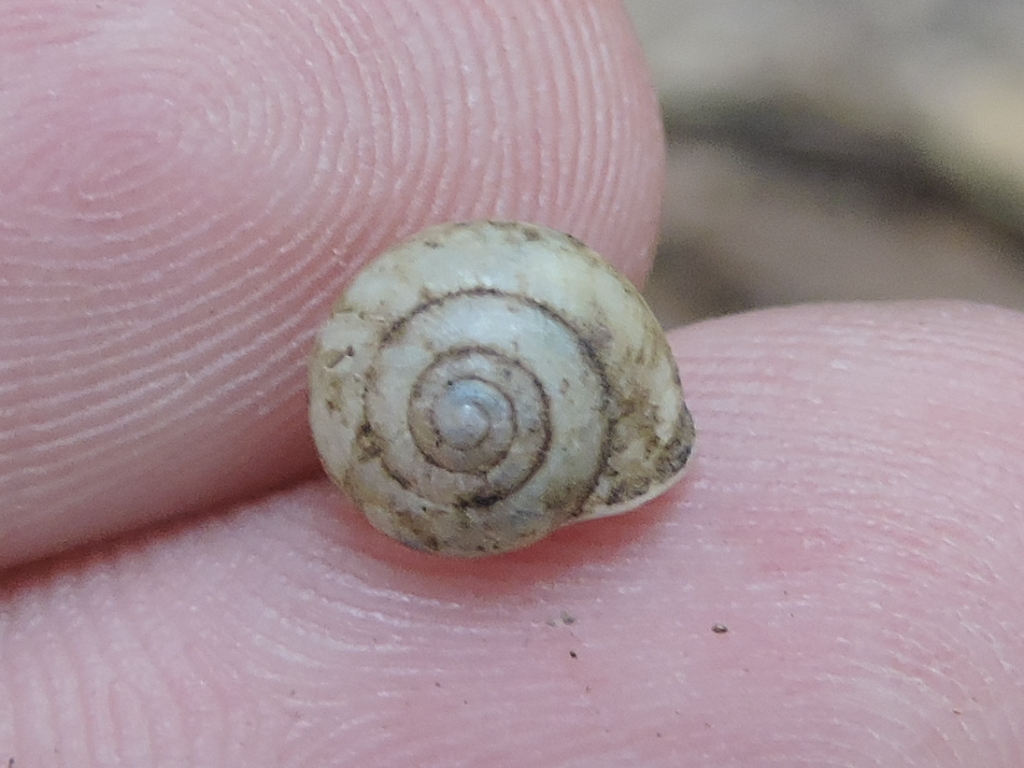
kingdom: Animalia
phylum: Mollusca
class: Gastropoda
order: Cycloneritida
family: Helicinidae
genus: Helicina
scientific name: Helicina orbiculata
